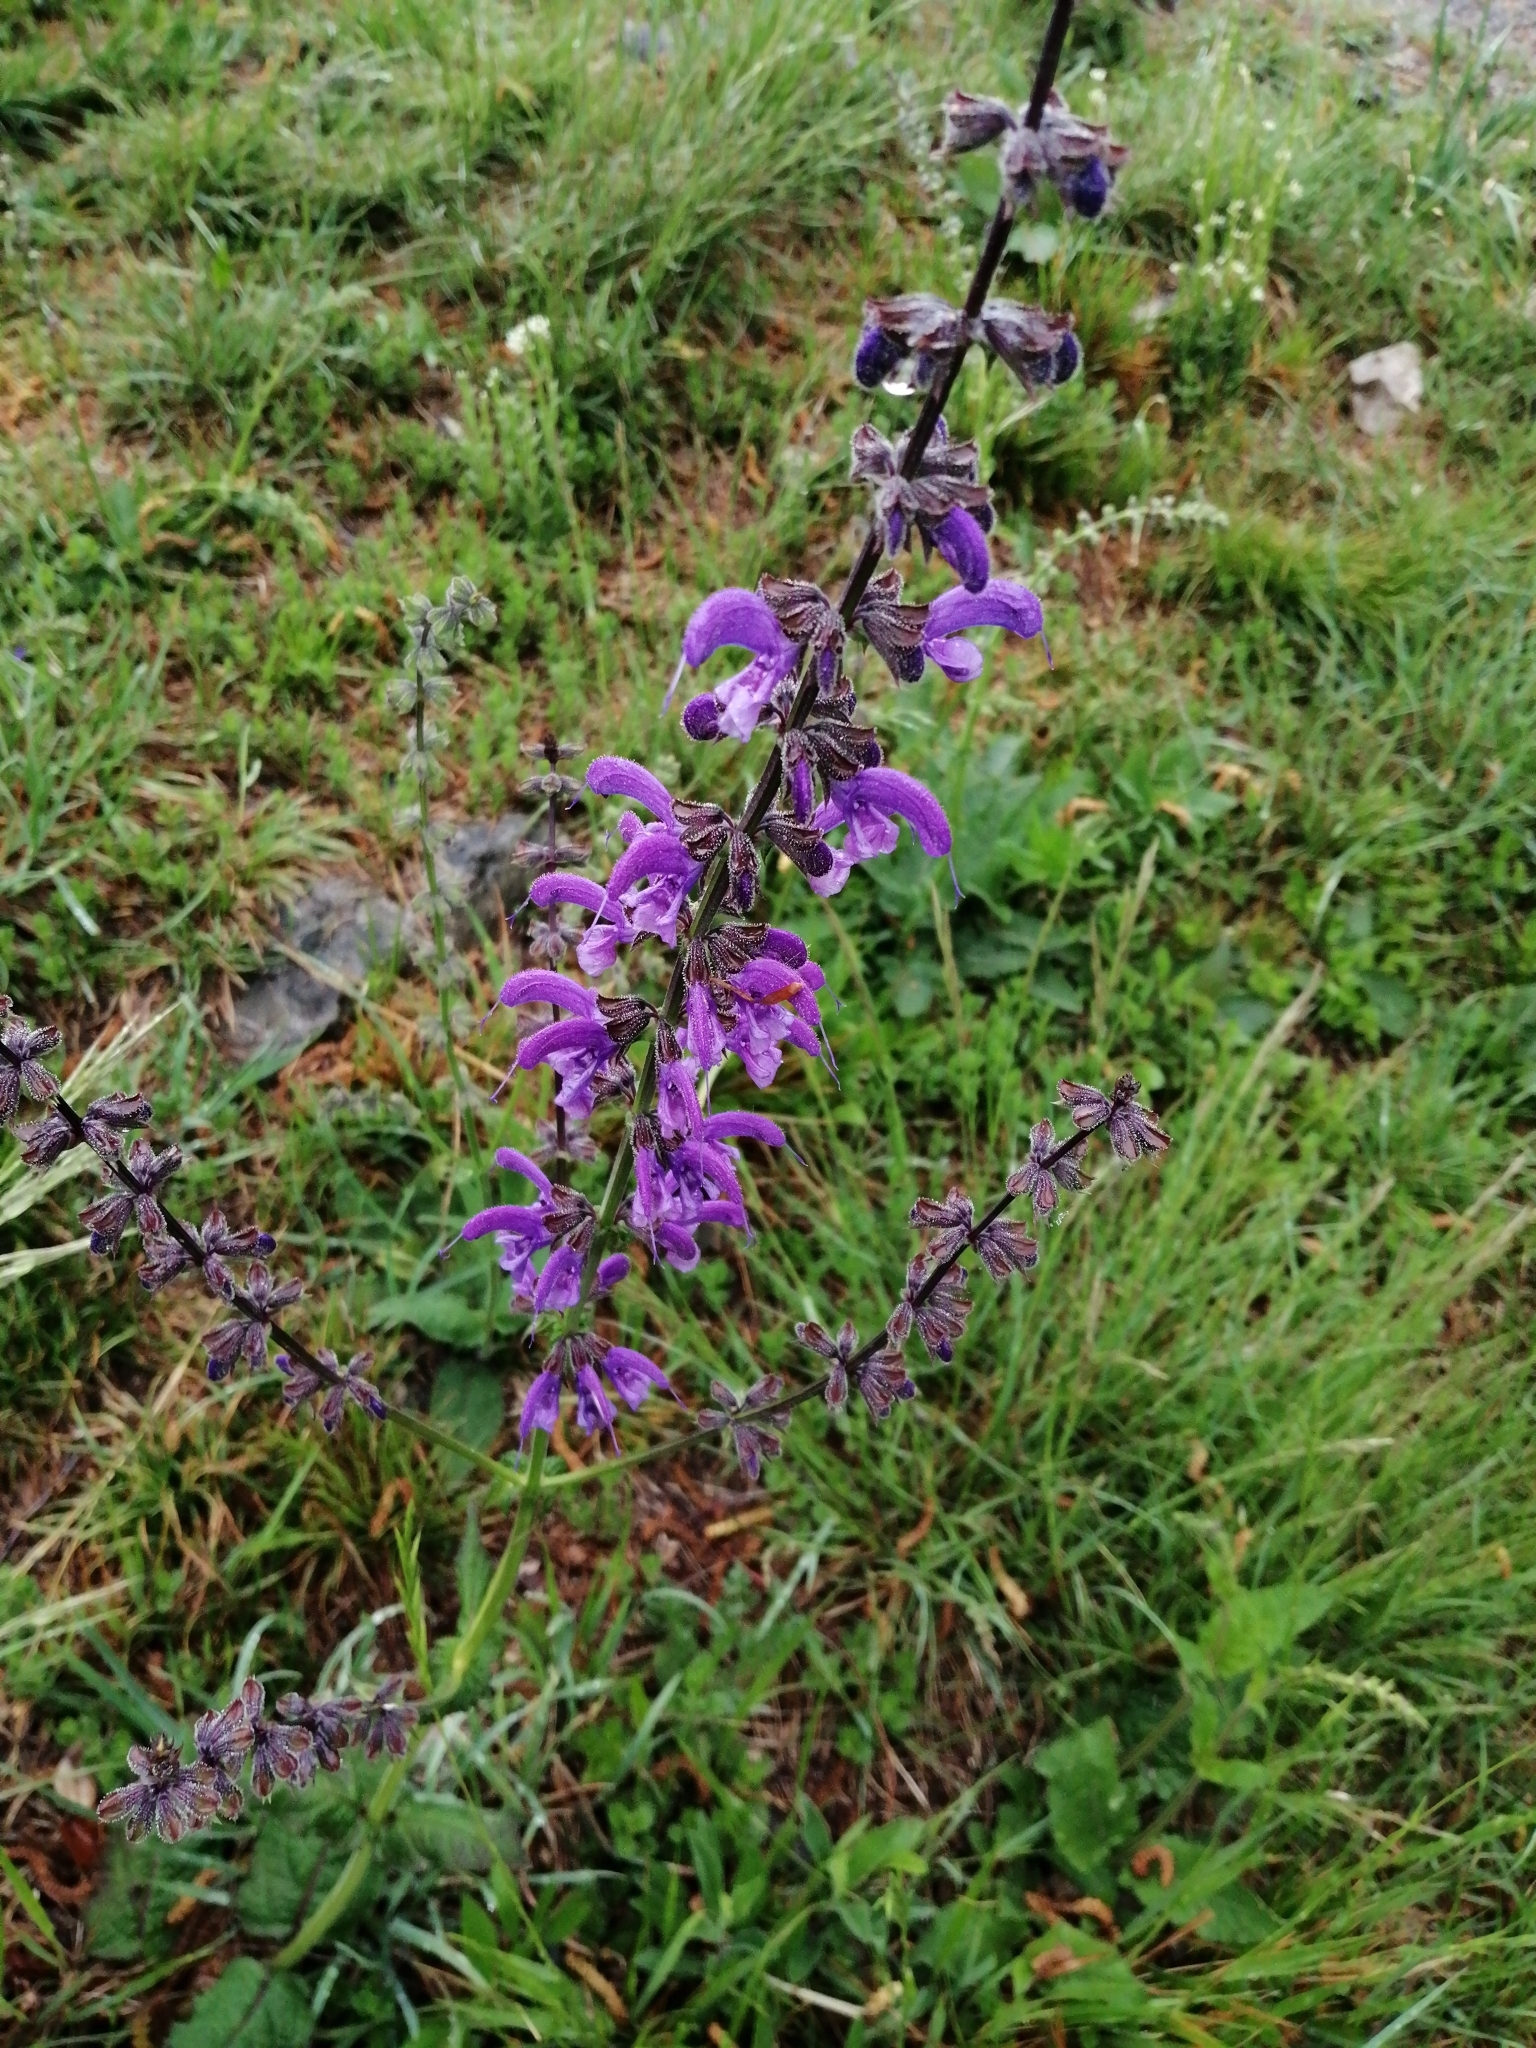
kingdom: Plantae
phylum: Tracheophyta
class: Magnoliopsida
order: Lamiales
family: Lamiaceae
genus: Salvia
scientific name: Salvia pratensis
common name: Meadow sage
